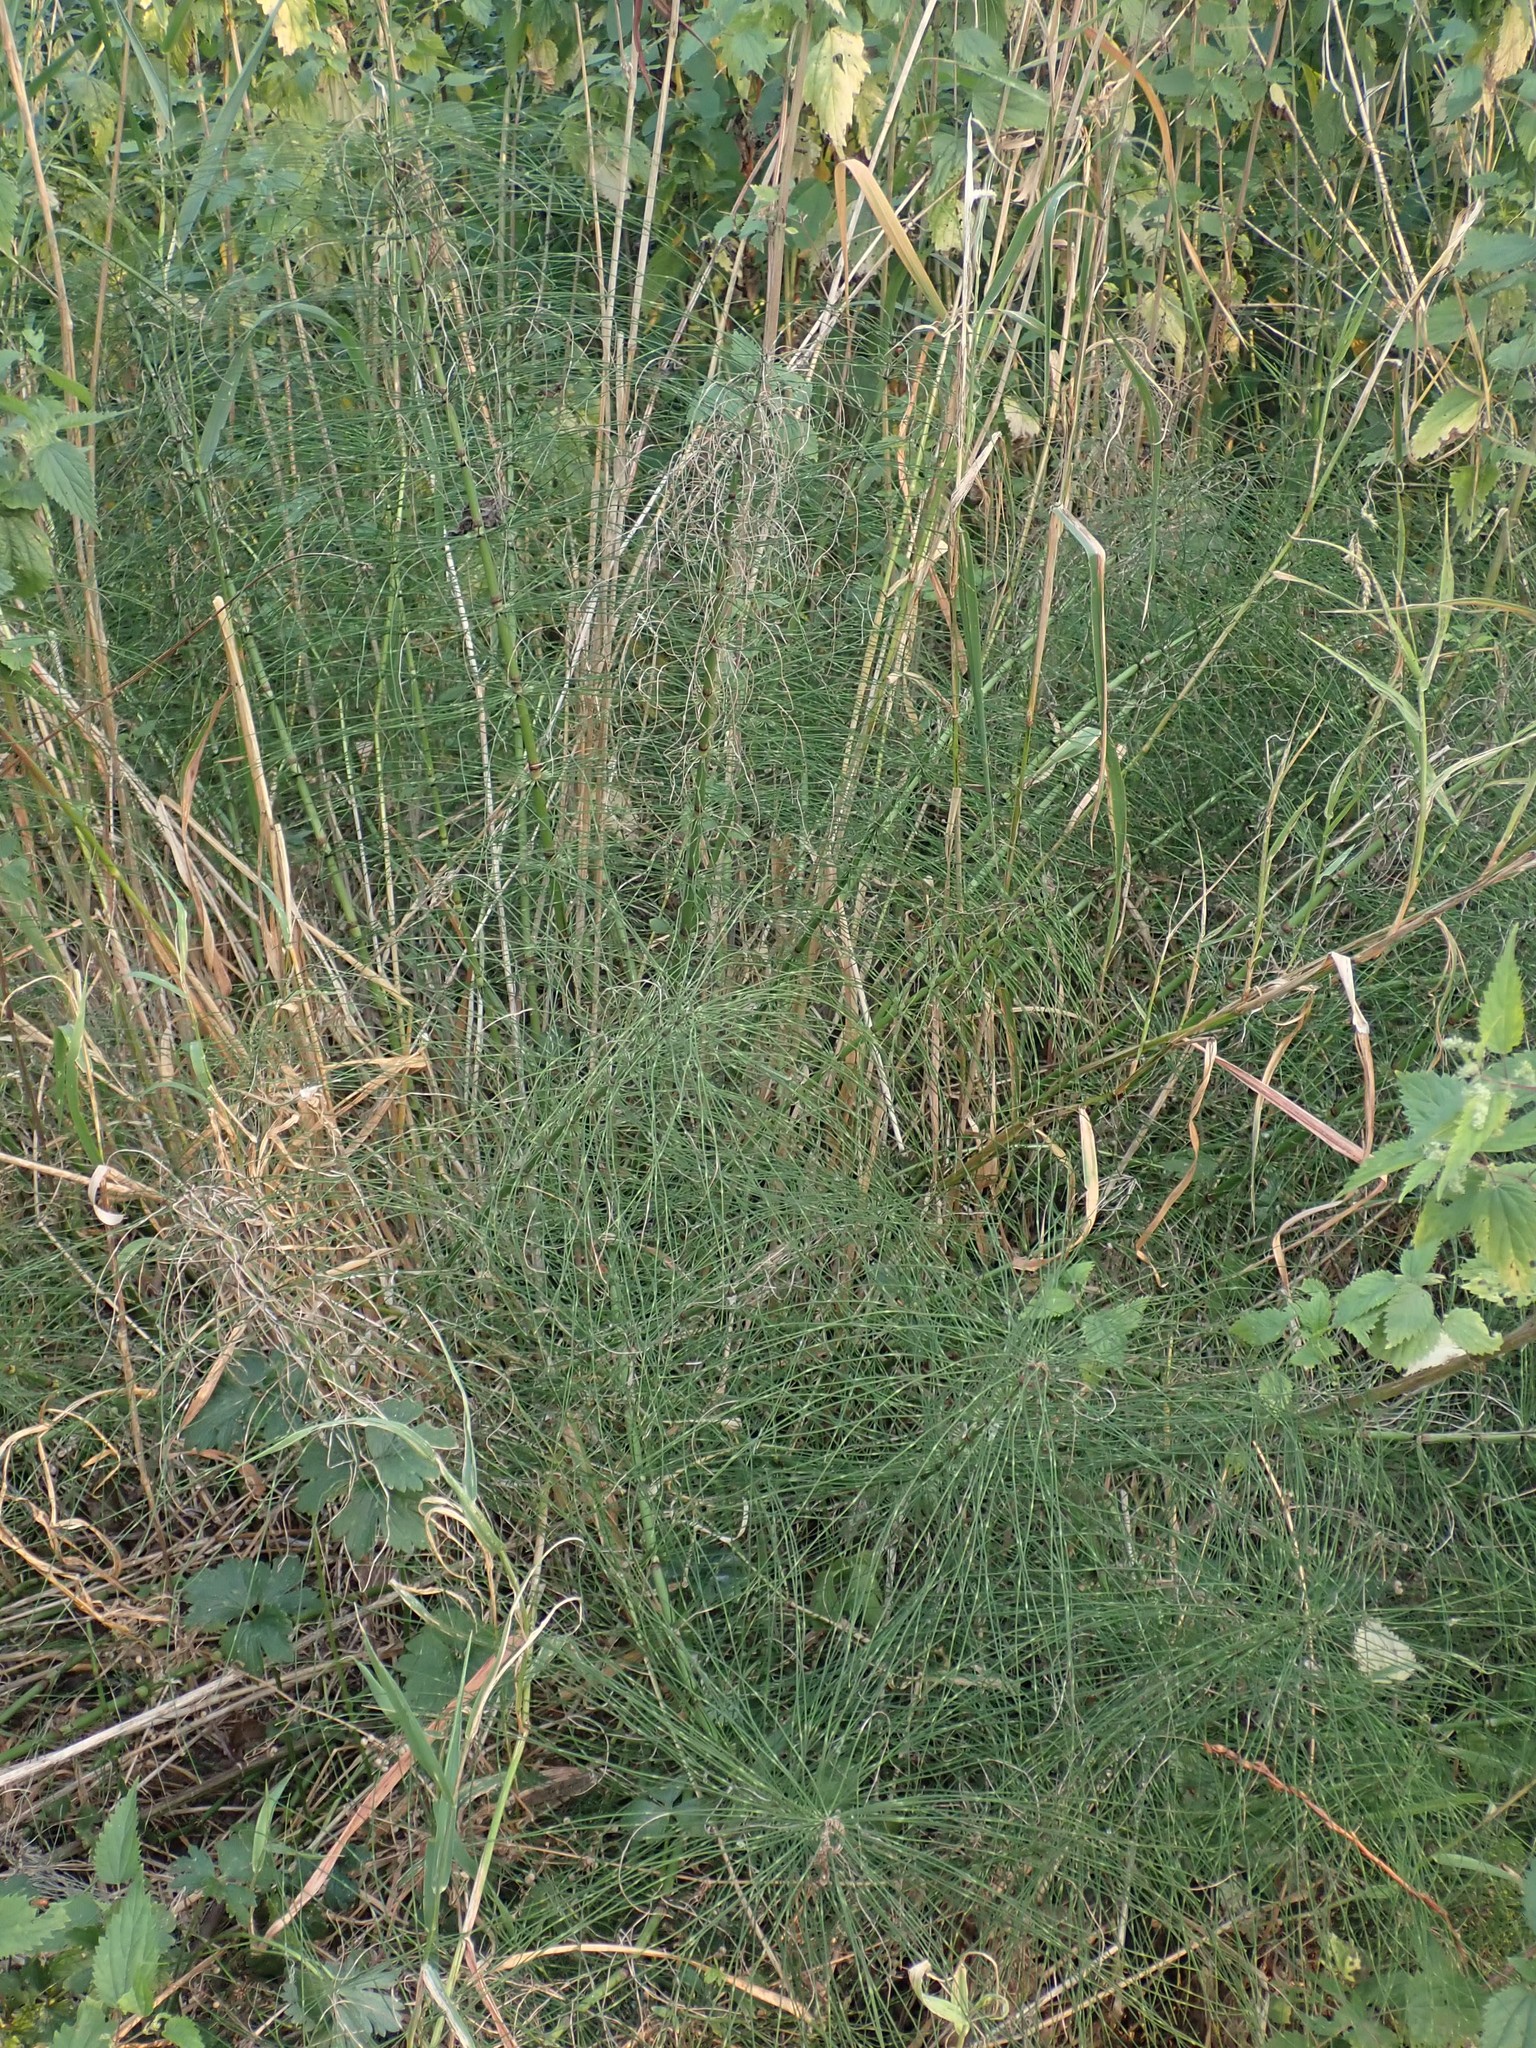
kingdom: Plantae
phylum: Tracheophyta
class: Polypodiopsida
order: Equisetales
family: Equisetaceae
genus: Equisetum
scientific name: Equisetum braunii
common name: Braun's horsetail
